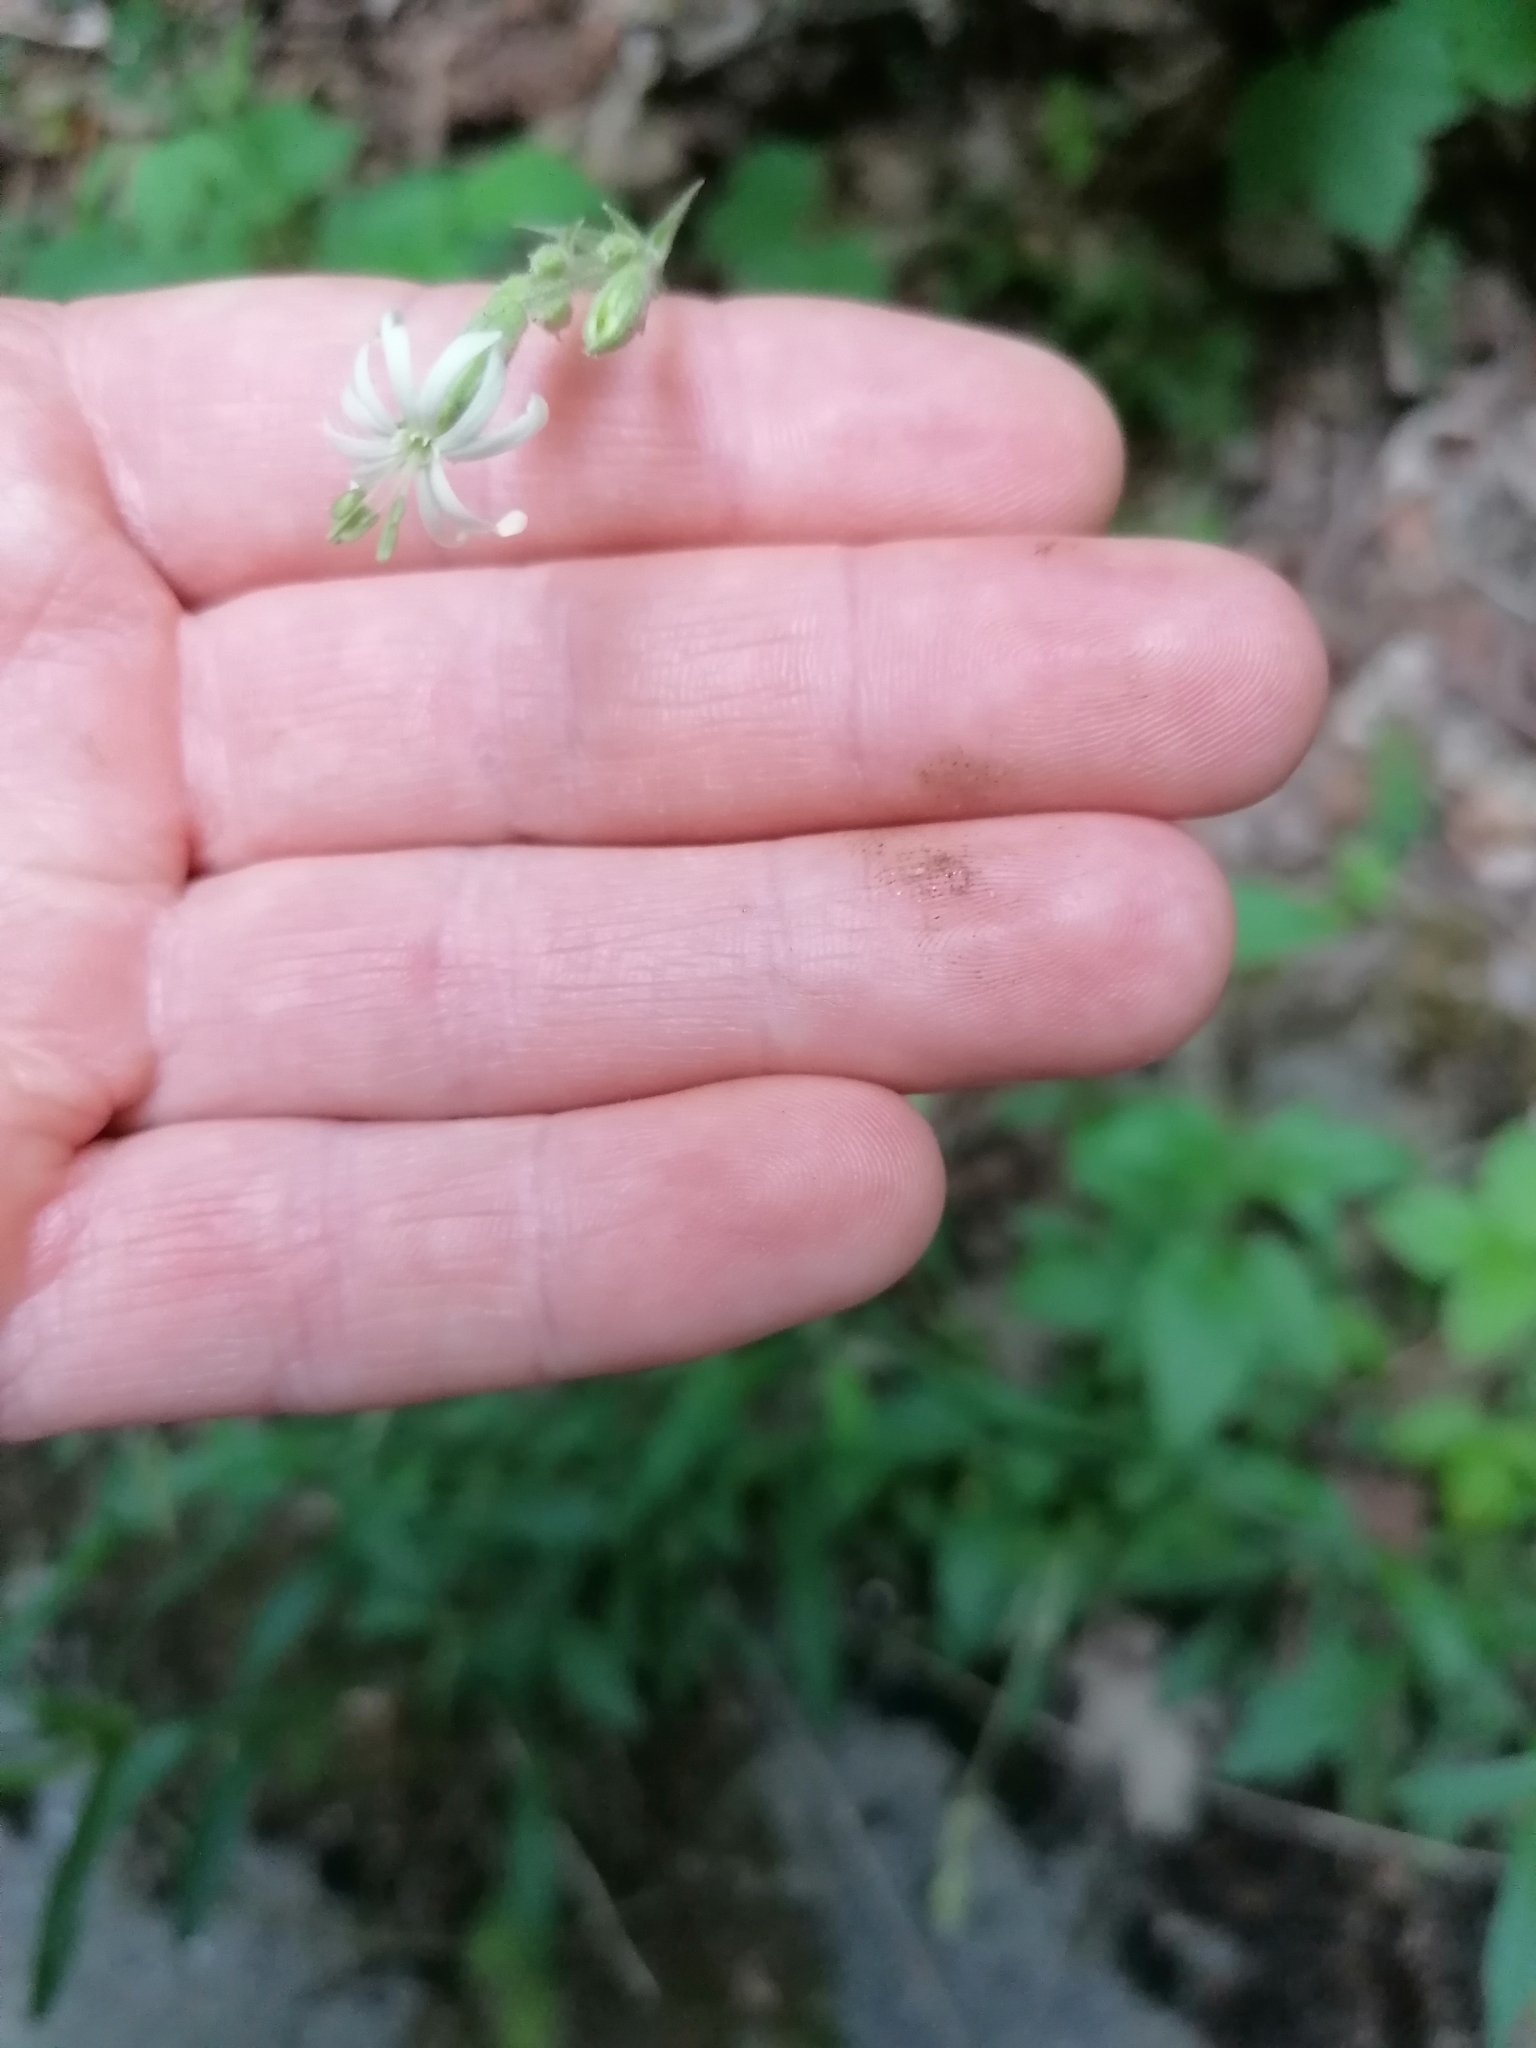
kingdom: Plantae
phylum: Tracheophyta
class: Magnoliopsida
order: Caryophyllales
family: Caryophyllaceae
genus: Silene
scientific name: Silene nutans
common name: Nottingham catchfly
